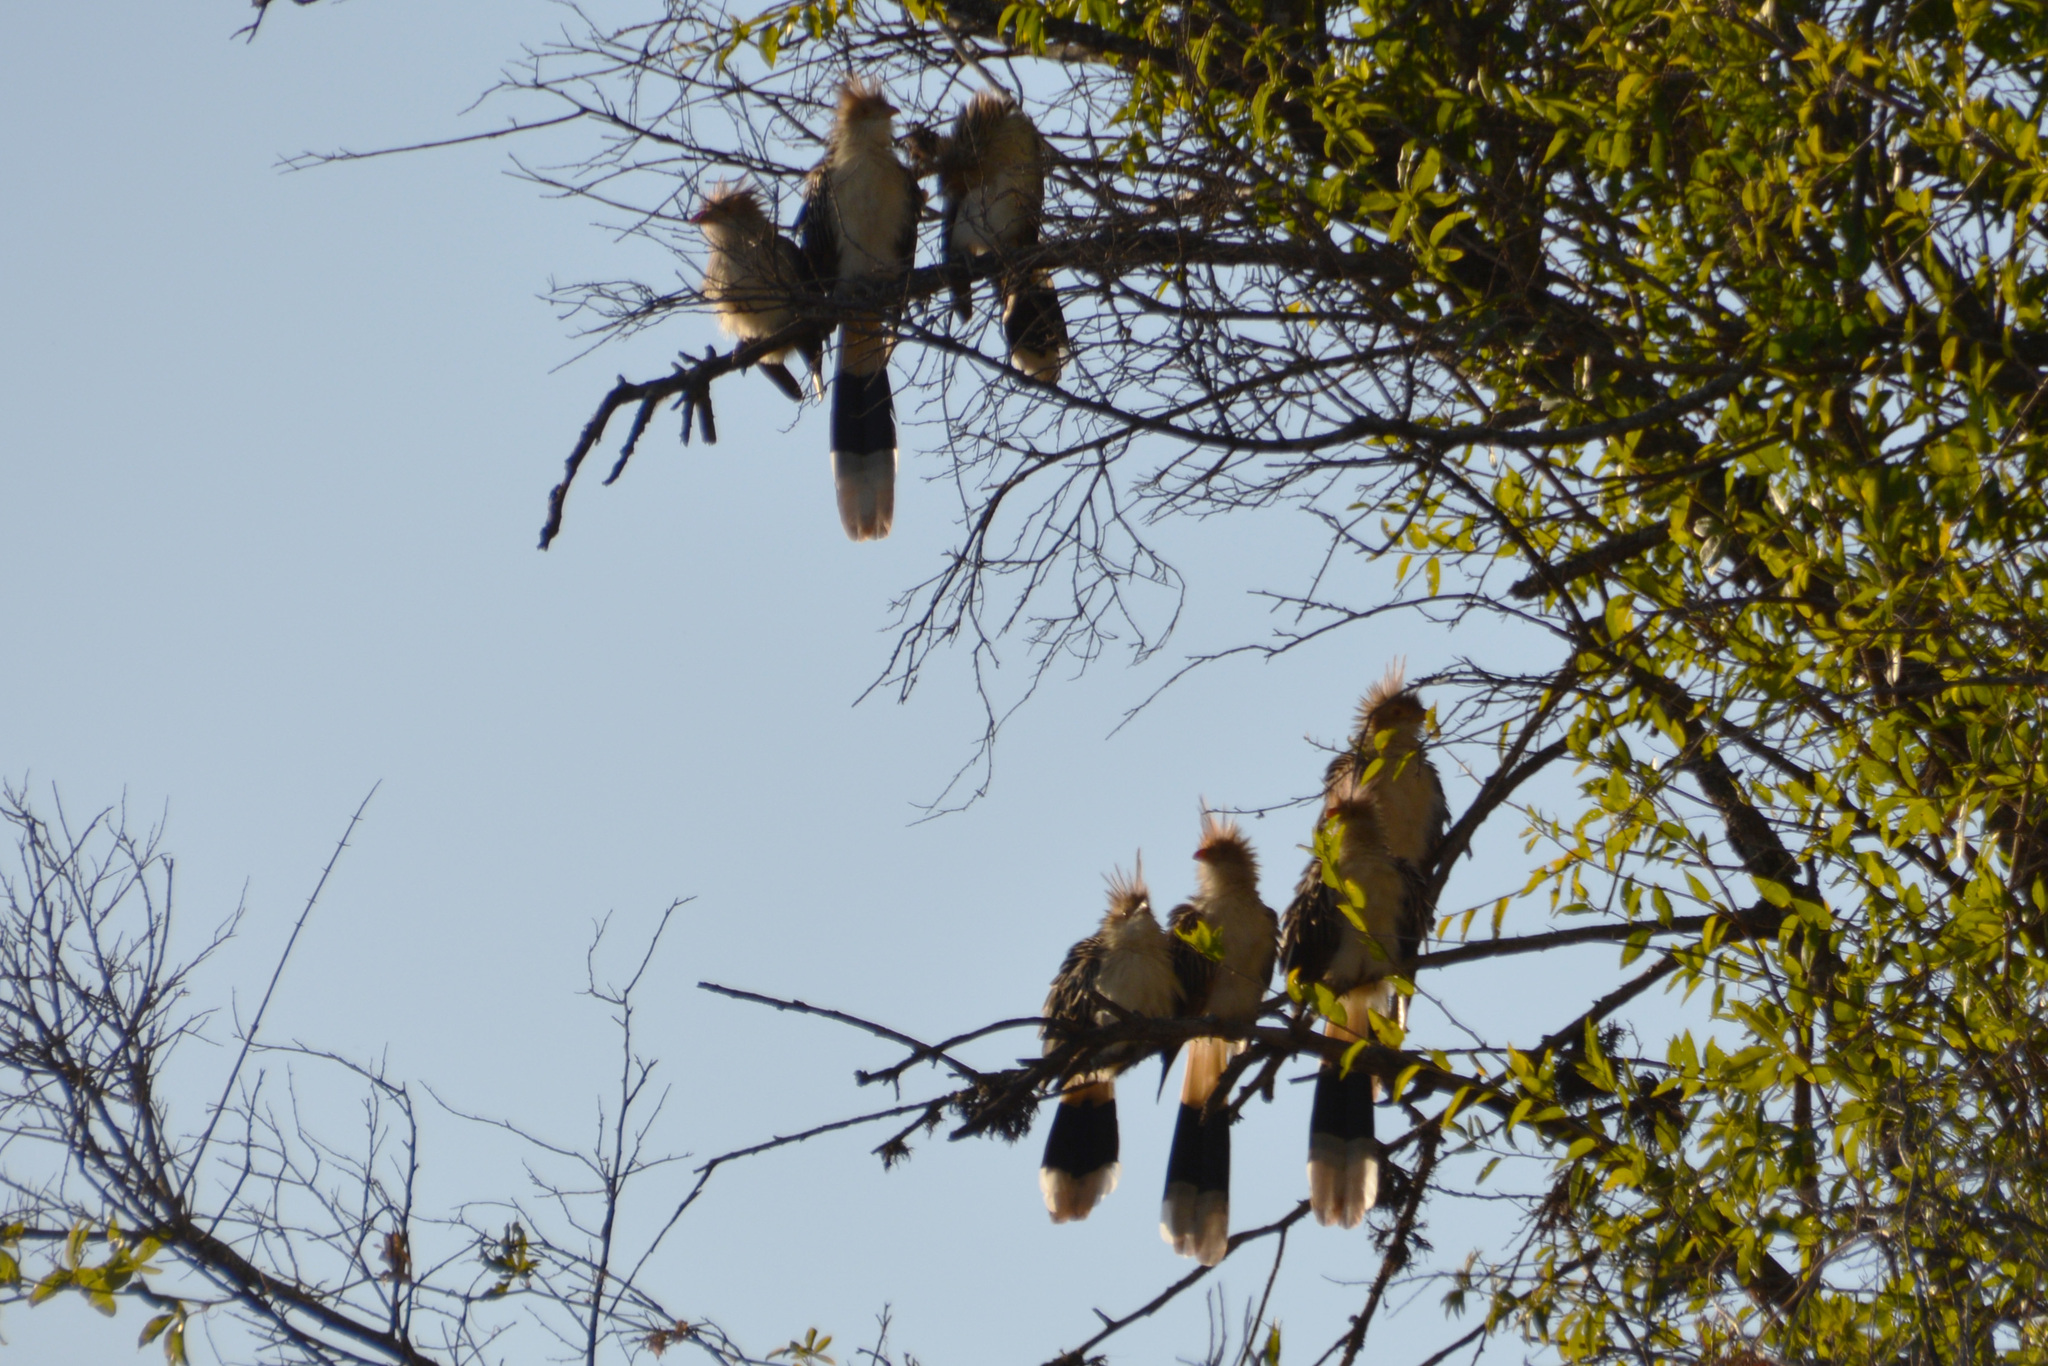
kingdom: Animalia
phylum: Chordata
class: Aves
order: Cuculiformes
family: Cuculidae
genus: Guira
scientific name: Guira guira
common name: Guira cuckoo
